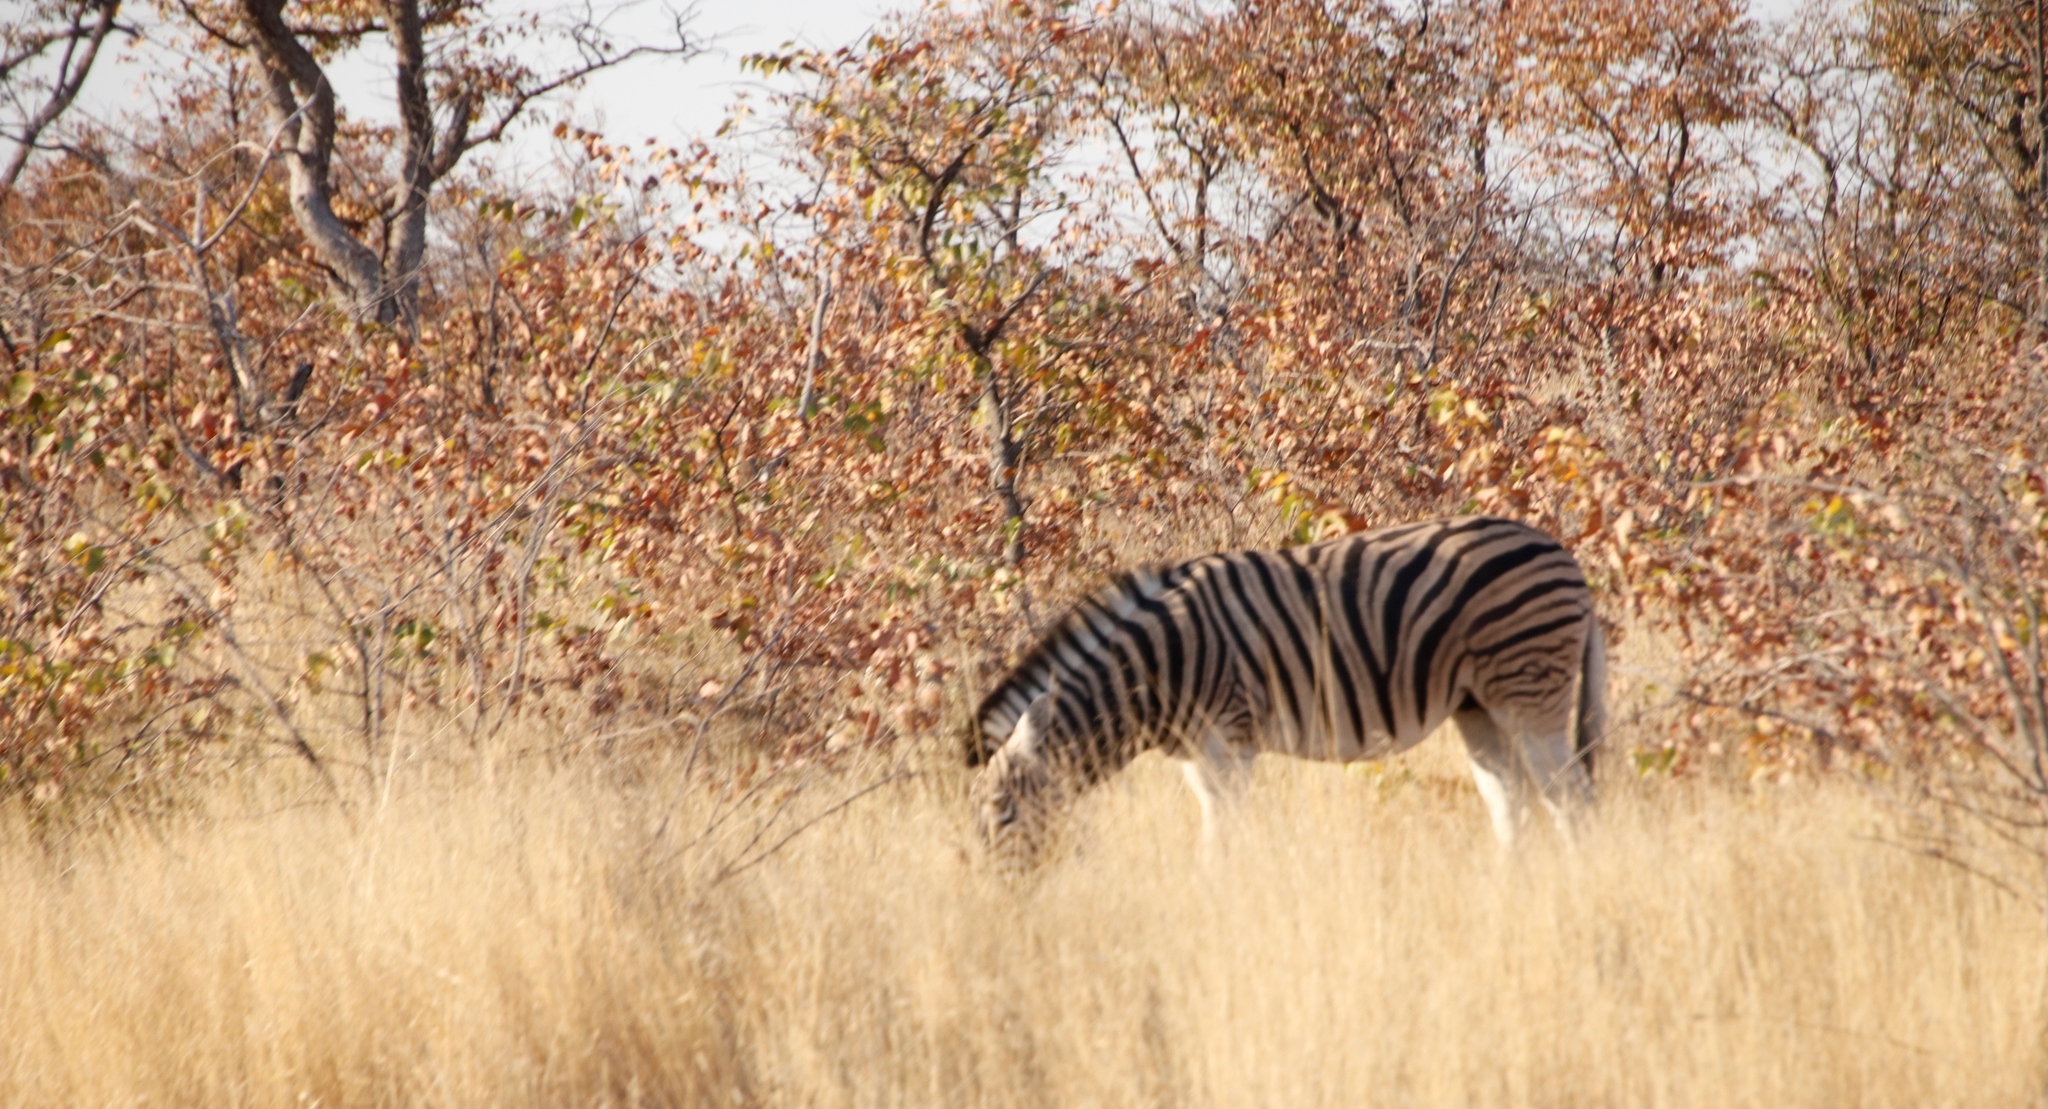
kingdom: Animalia
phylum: Chordata
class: Mammalia
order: Perissodactyla
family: Equidae
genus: Equus
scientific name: Equus quagga
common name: Plains zebra
